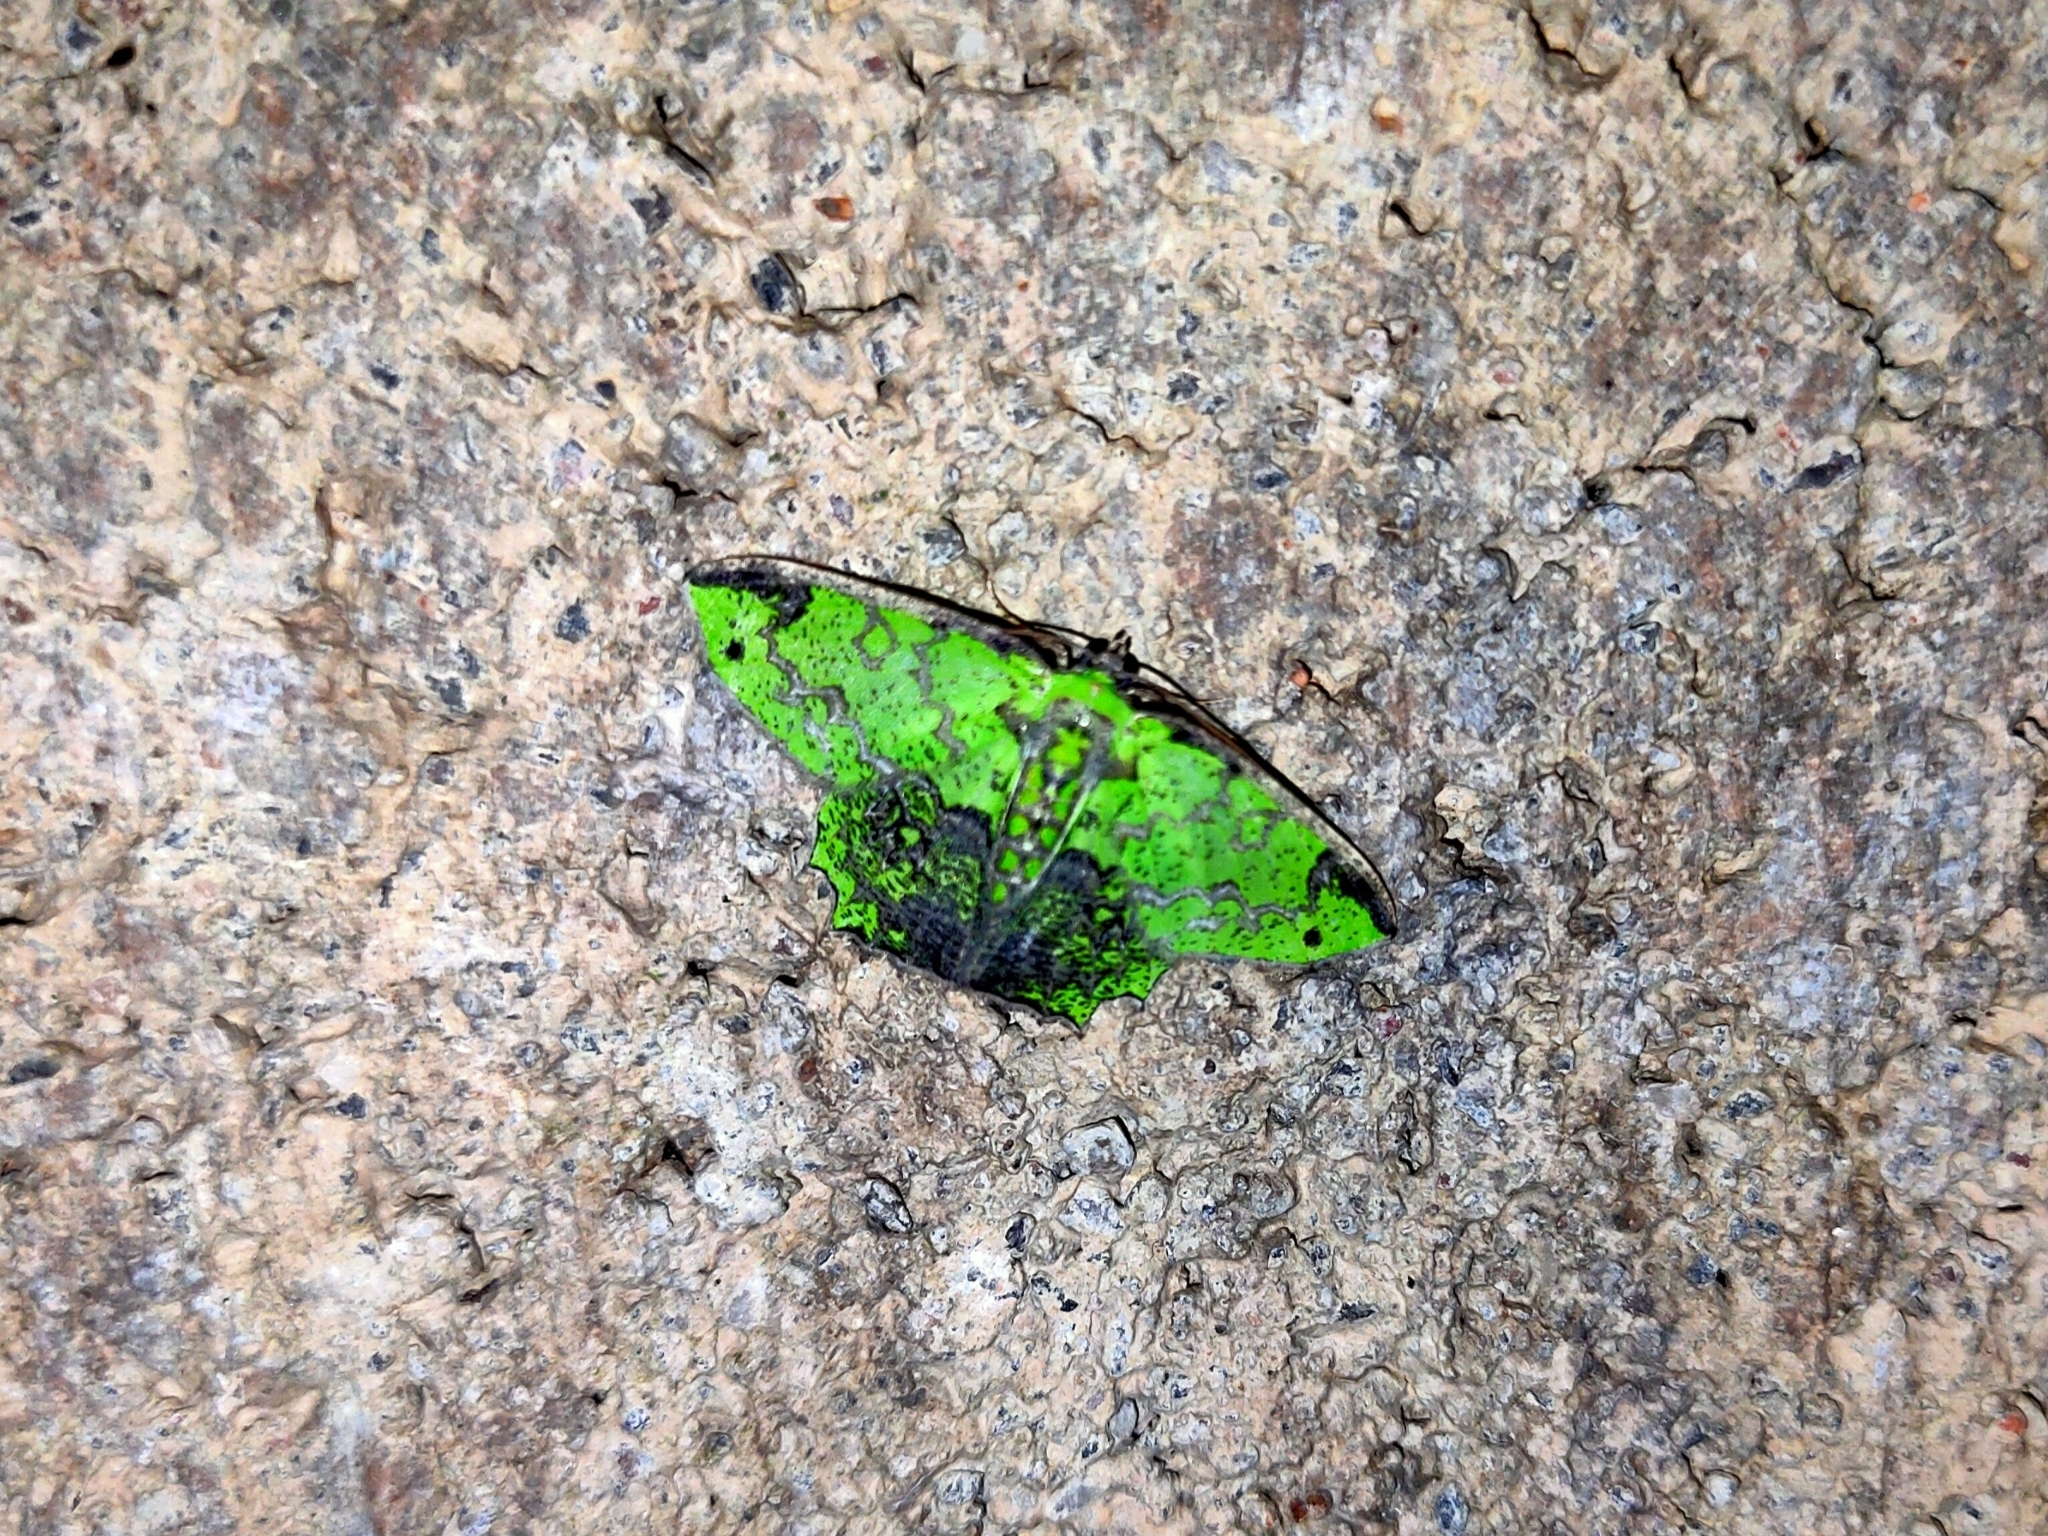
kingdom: Animalia
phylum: Arthropoda
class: Insecta
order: Lepidoptera
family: Geometridae
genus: Agathia
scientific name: Agathia laqueifera
